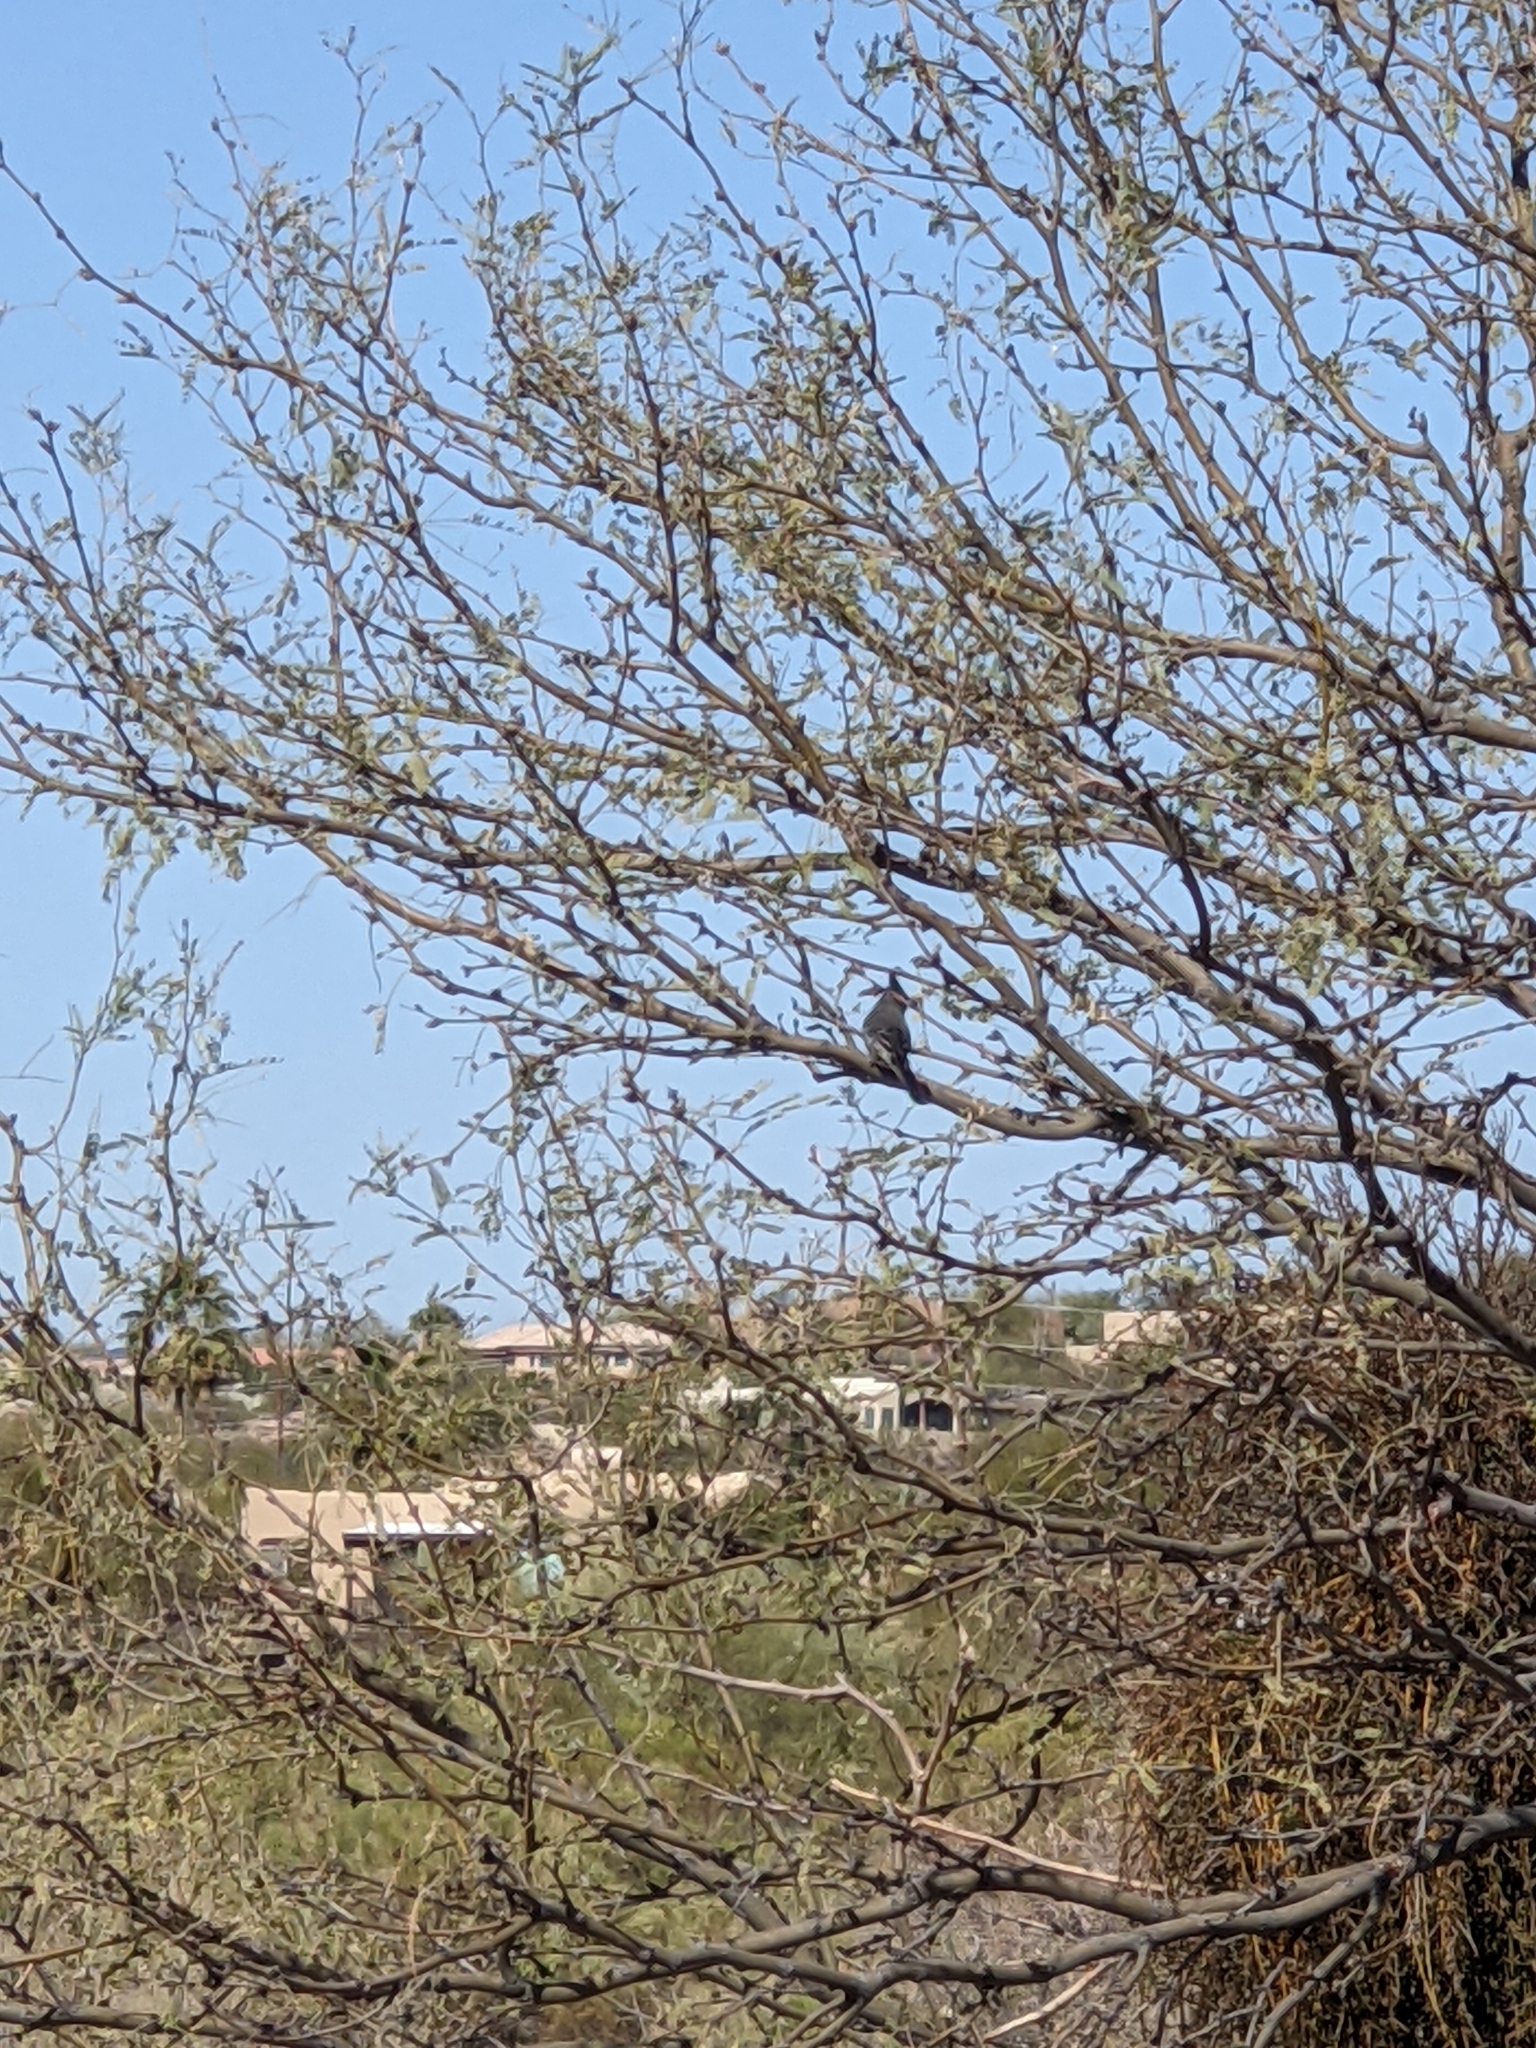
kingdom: Animalia
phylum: Chordata
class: Aves
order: Passeriformes
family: Ptilogonatidae
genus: Phainopepla
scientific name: Phainopepla nitens
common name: Phainopepla
